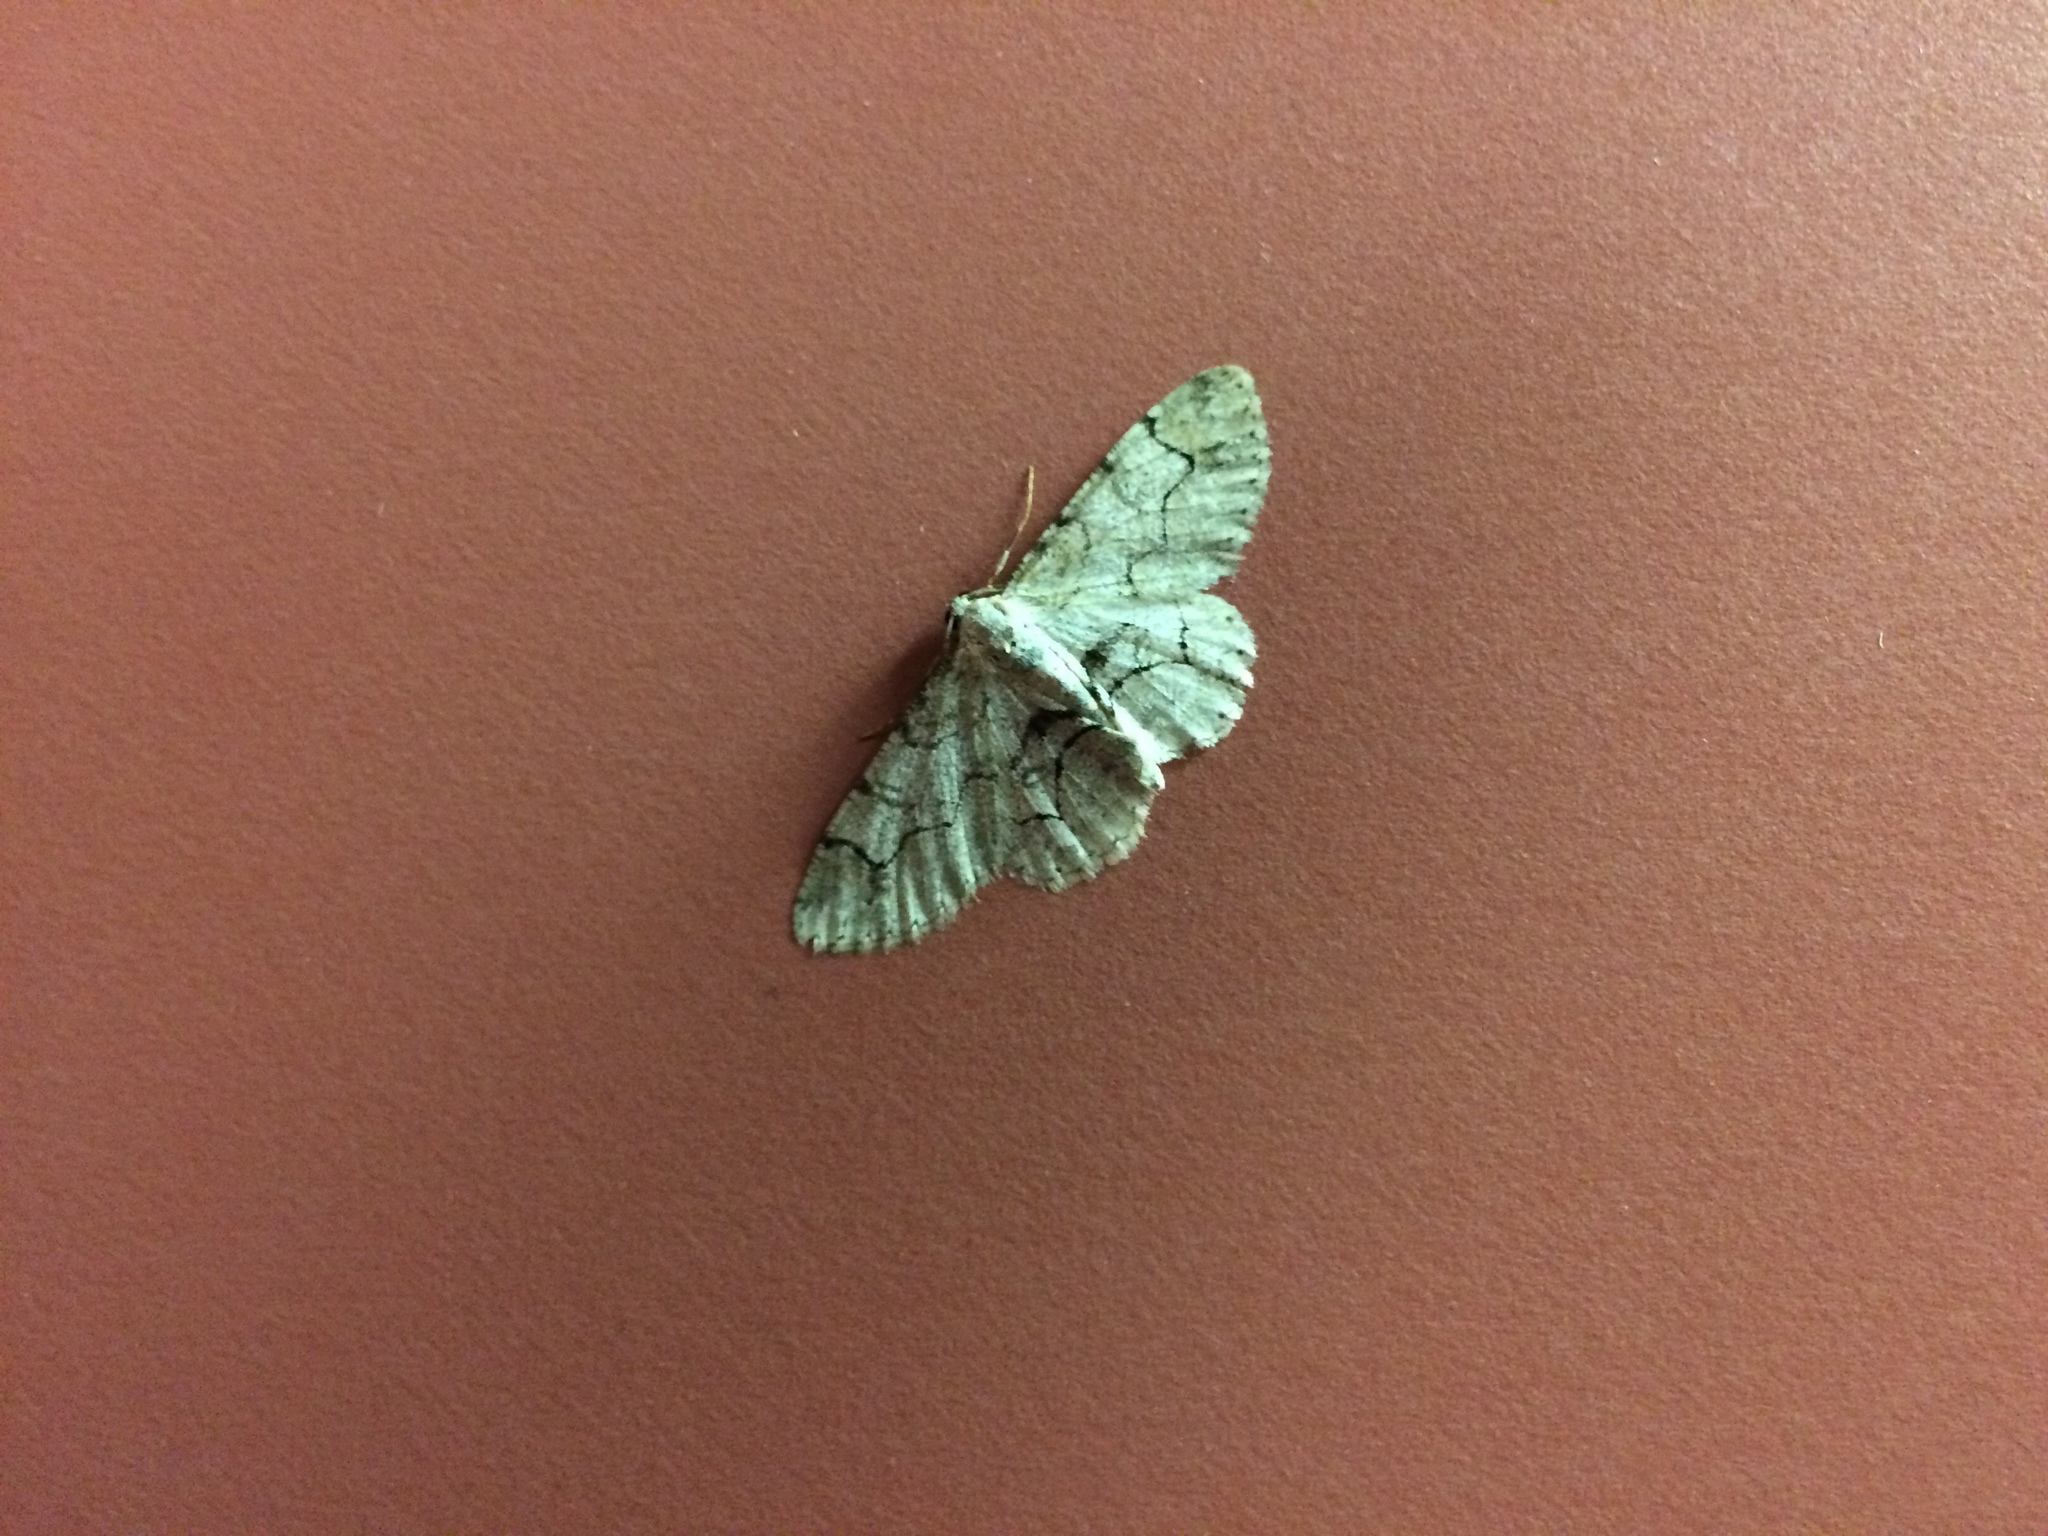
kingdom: Animalia
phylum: Arthropoda
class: Insecta
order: Lepidoptera
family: Geometridae
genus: Iridopsis
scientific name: Iridopsis larvaria
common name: Bent-line gray
